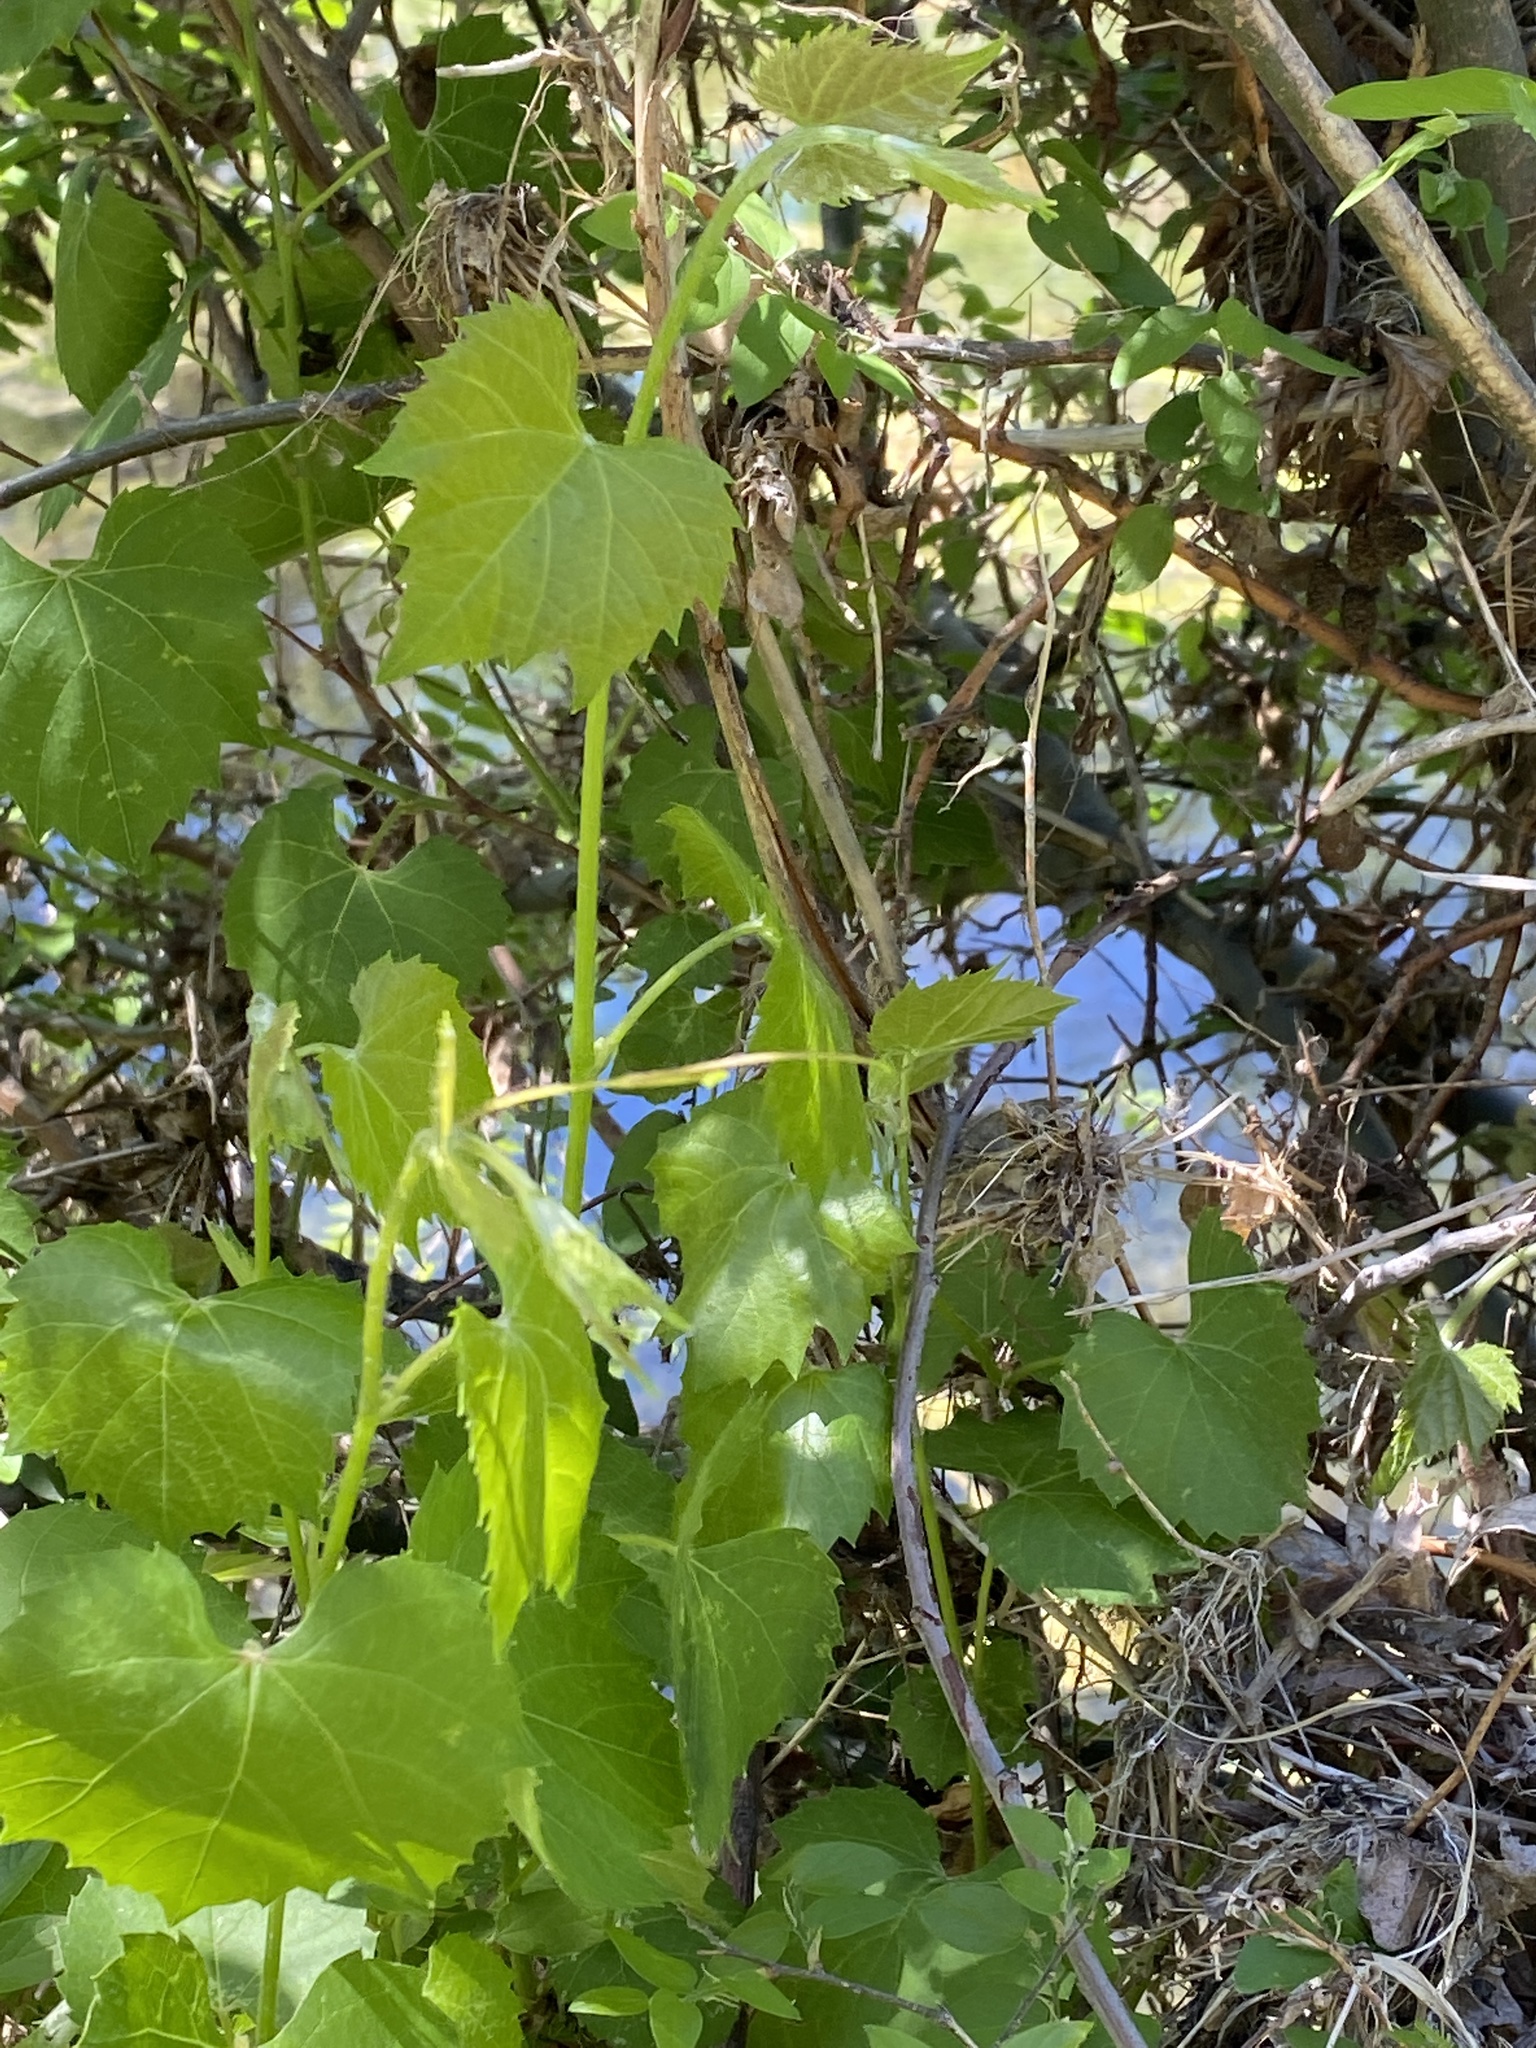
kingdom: Plantae
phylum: Tracheophyta
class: Magnoliopsida
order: Vitales
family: Vitaceae
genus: Vitis
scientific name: Vitis arizonica
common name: Canyon grape
